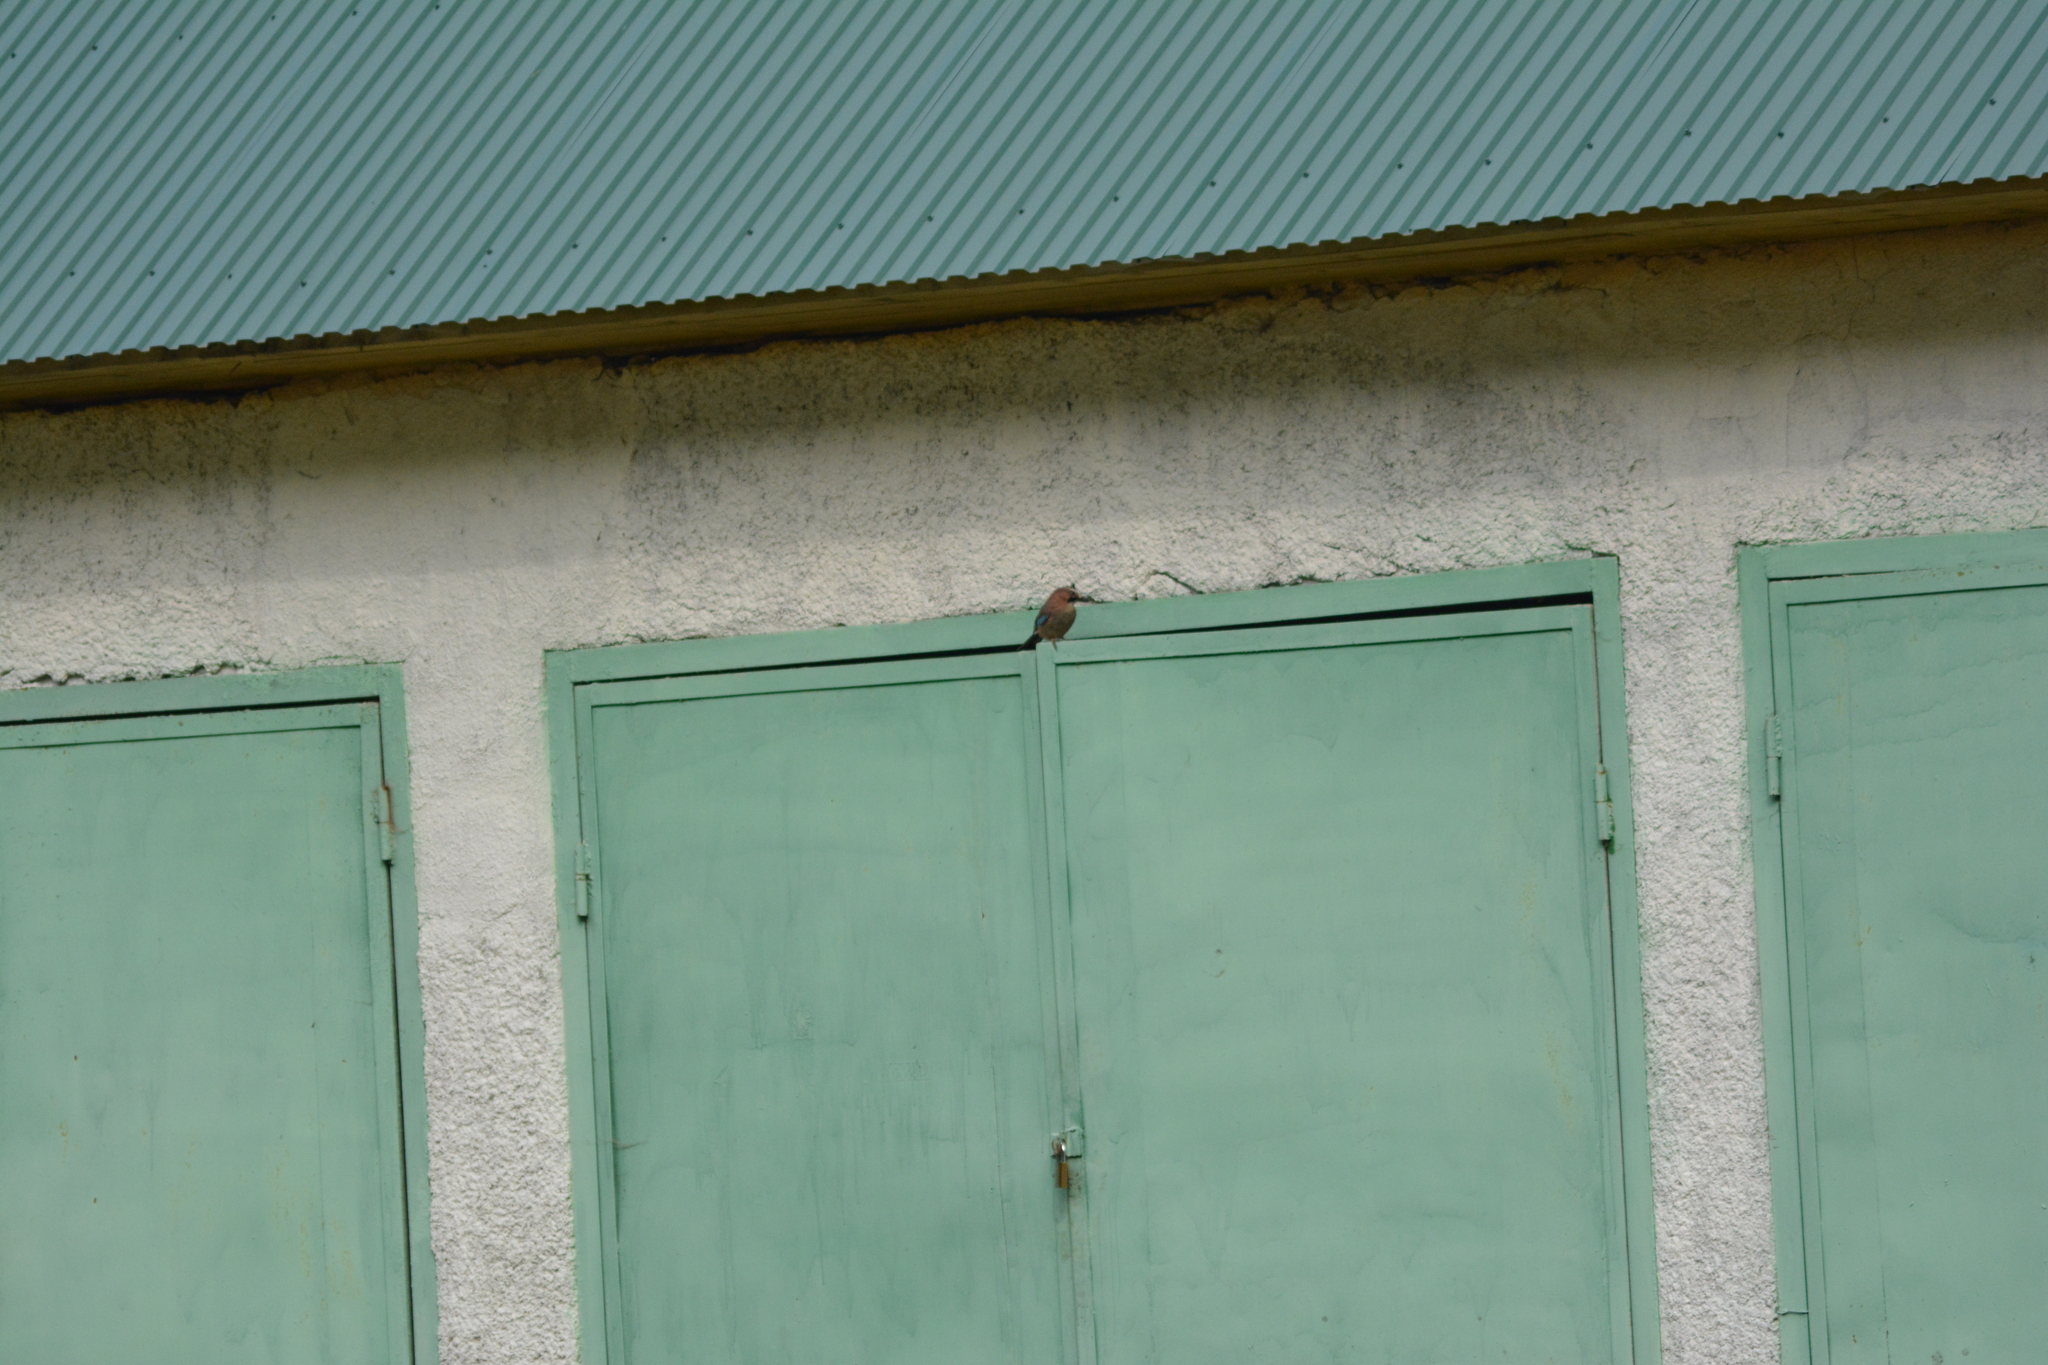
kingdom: Animalia
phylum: Chordata
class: Aves
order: Passeriformes
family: Corvidae
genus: Garrulus
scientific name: Garrulus glandarius
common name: Eurasian jay
